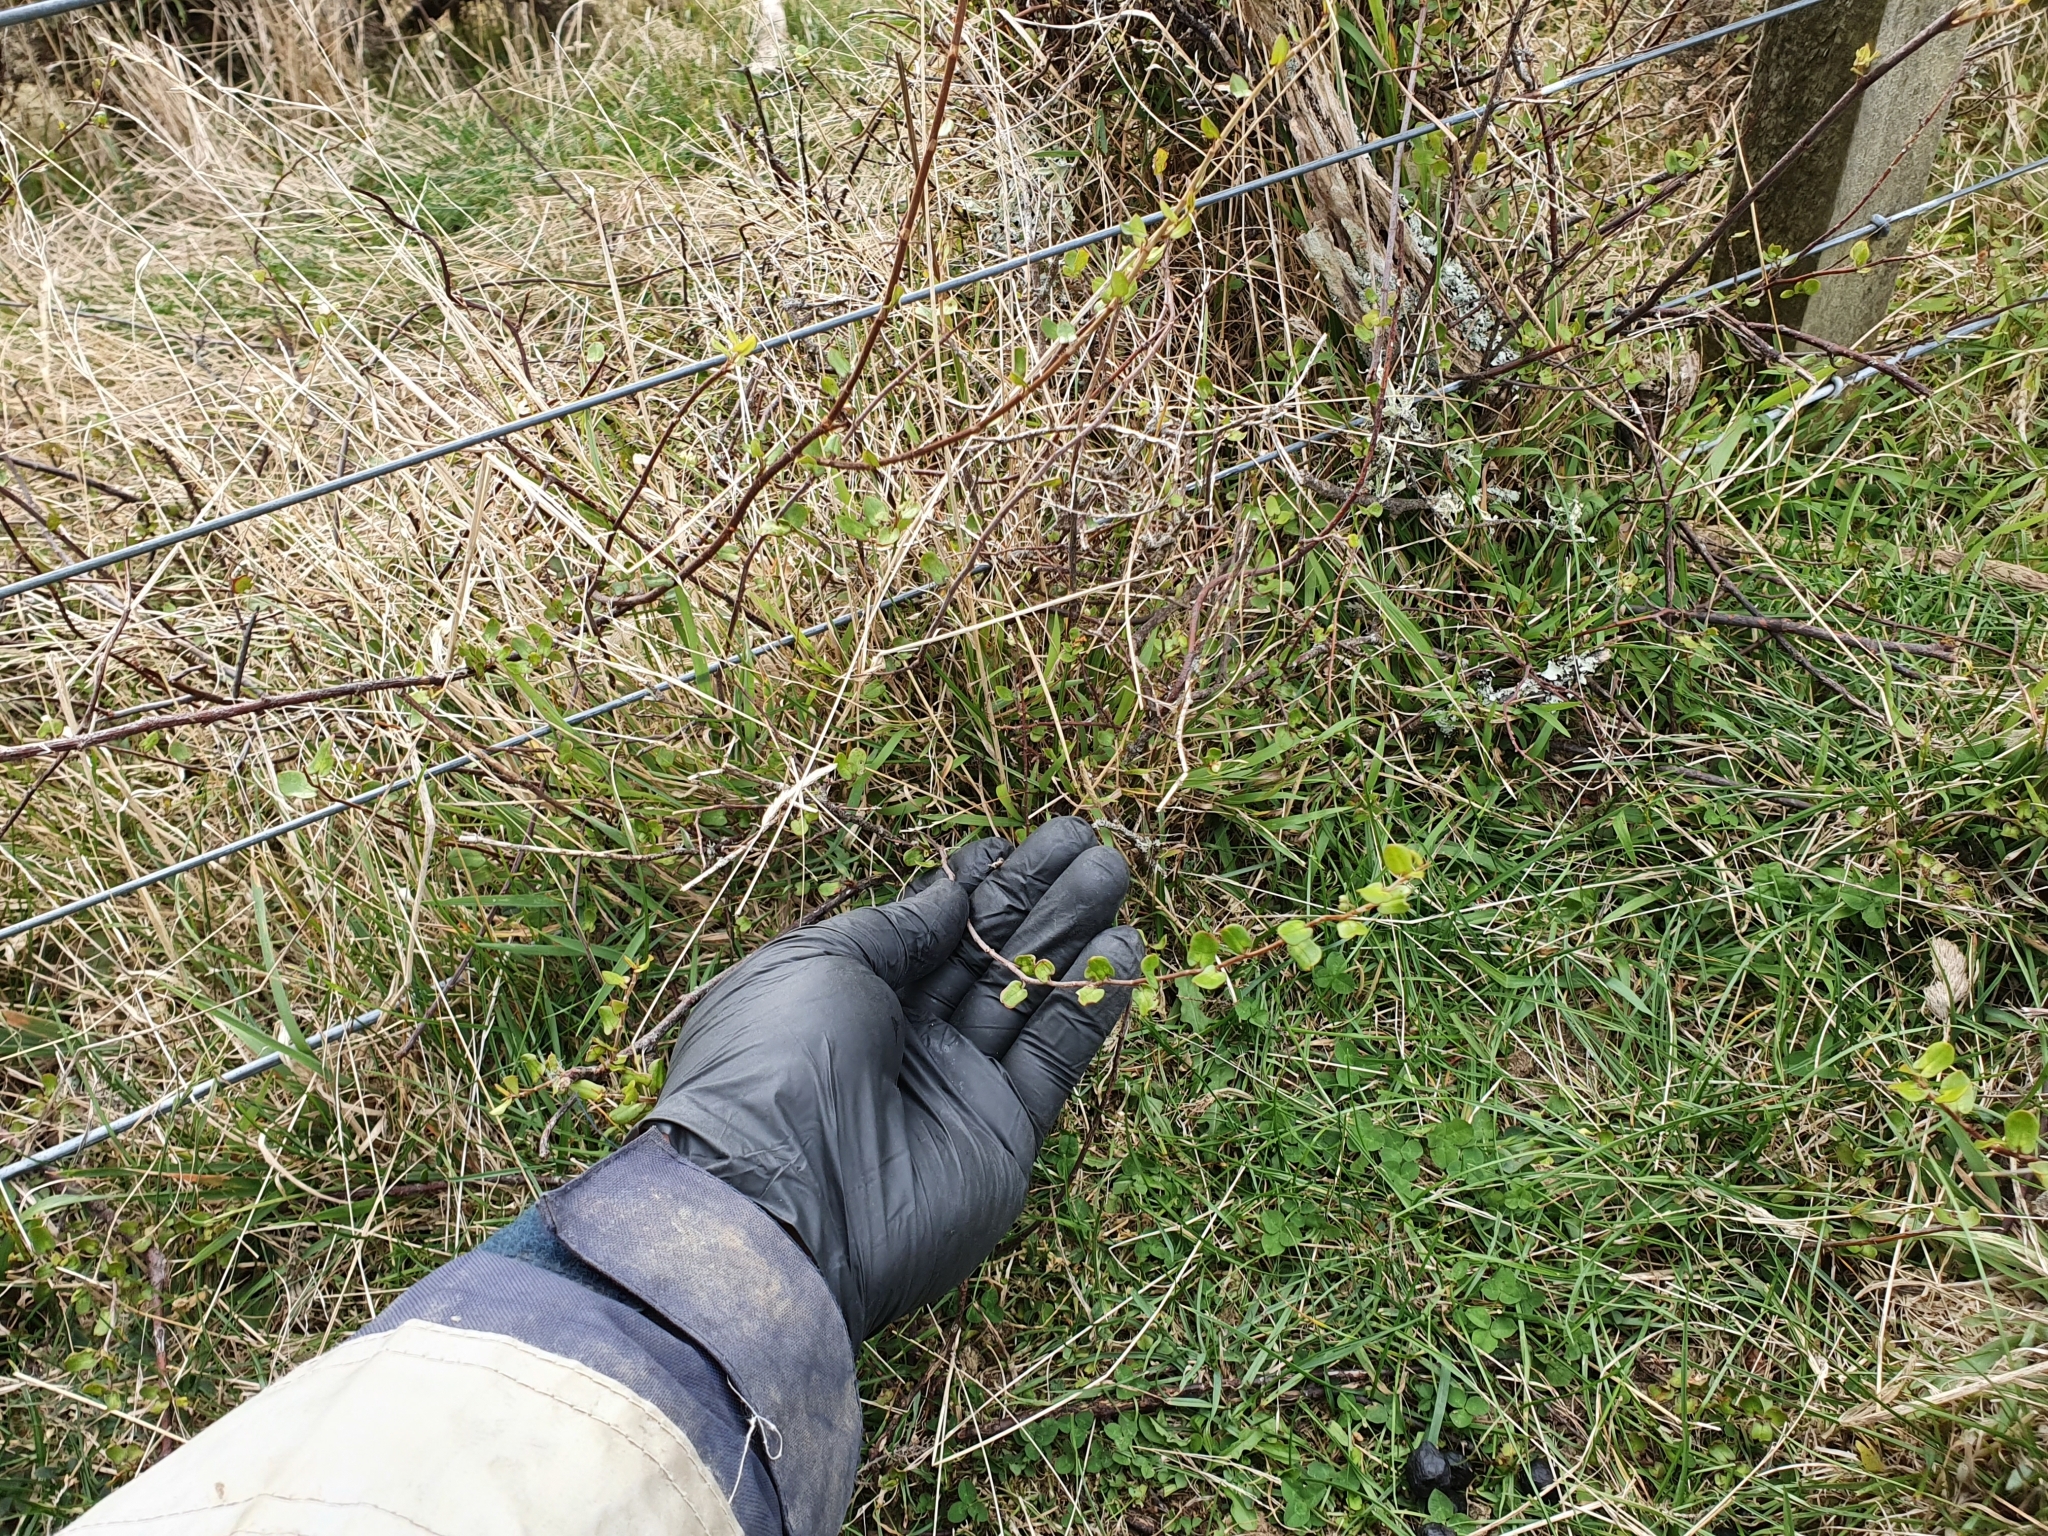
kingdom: Plantae
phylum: Tracheophyta
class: Magnoliopsida
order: Caryophyllales
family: Polygonaceae
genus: Muehlenbeckia
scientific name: Muehlenbeckia complexa
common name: Wireplant
